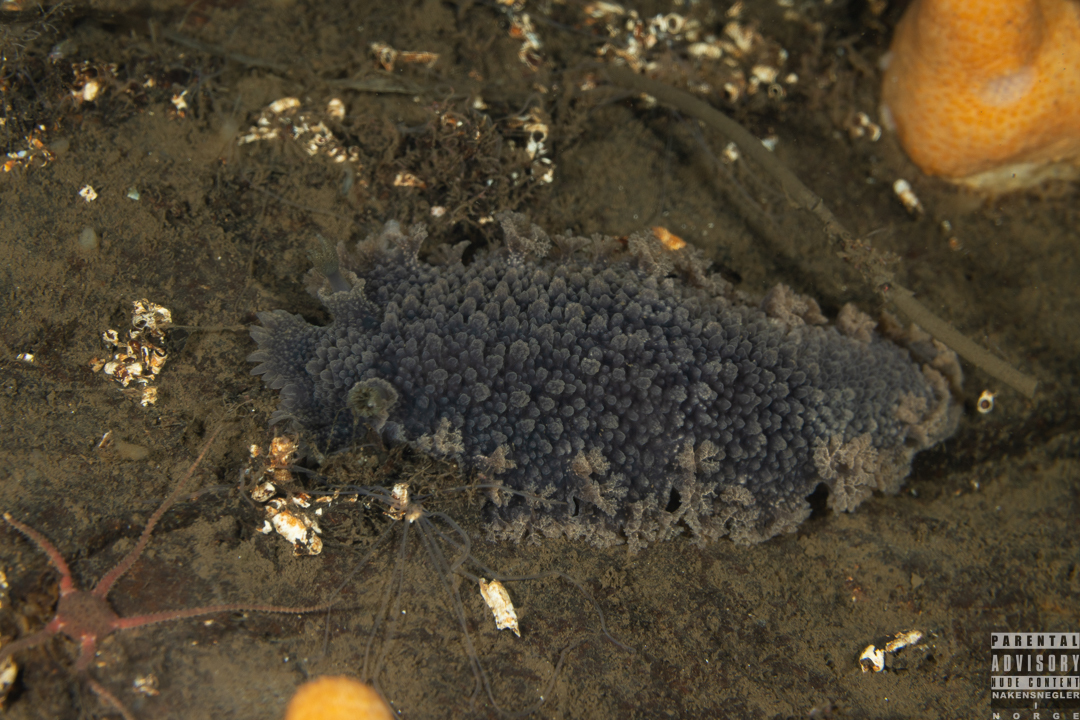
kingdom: Animalia
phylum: Mollusca
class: Gastropoda
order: Nudibranchia
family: Tritoniidae
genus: Tritonia
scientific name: Tritonia hombergii
